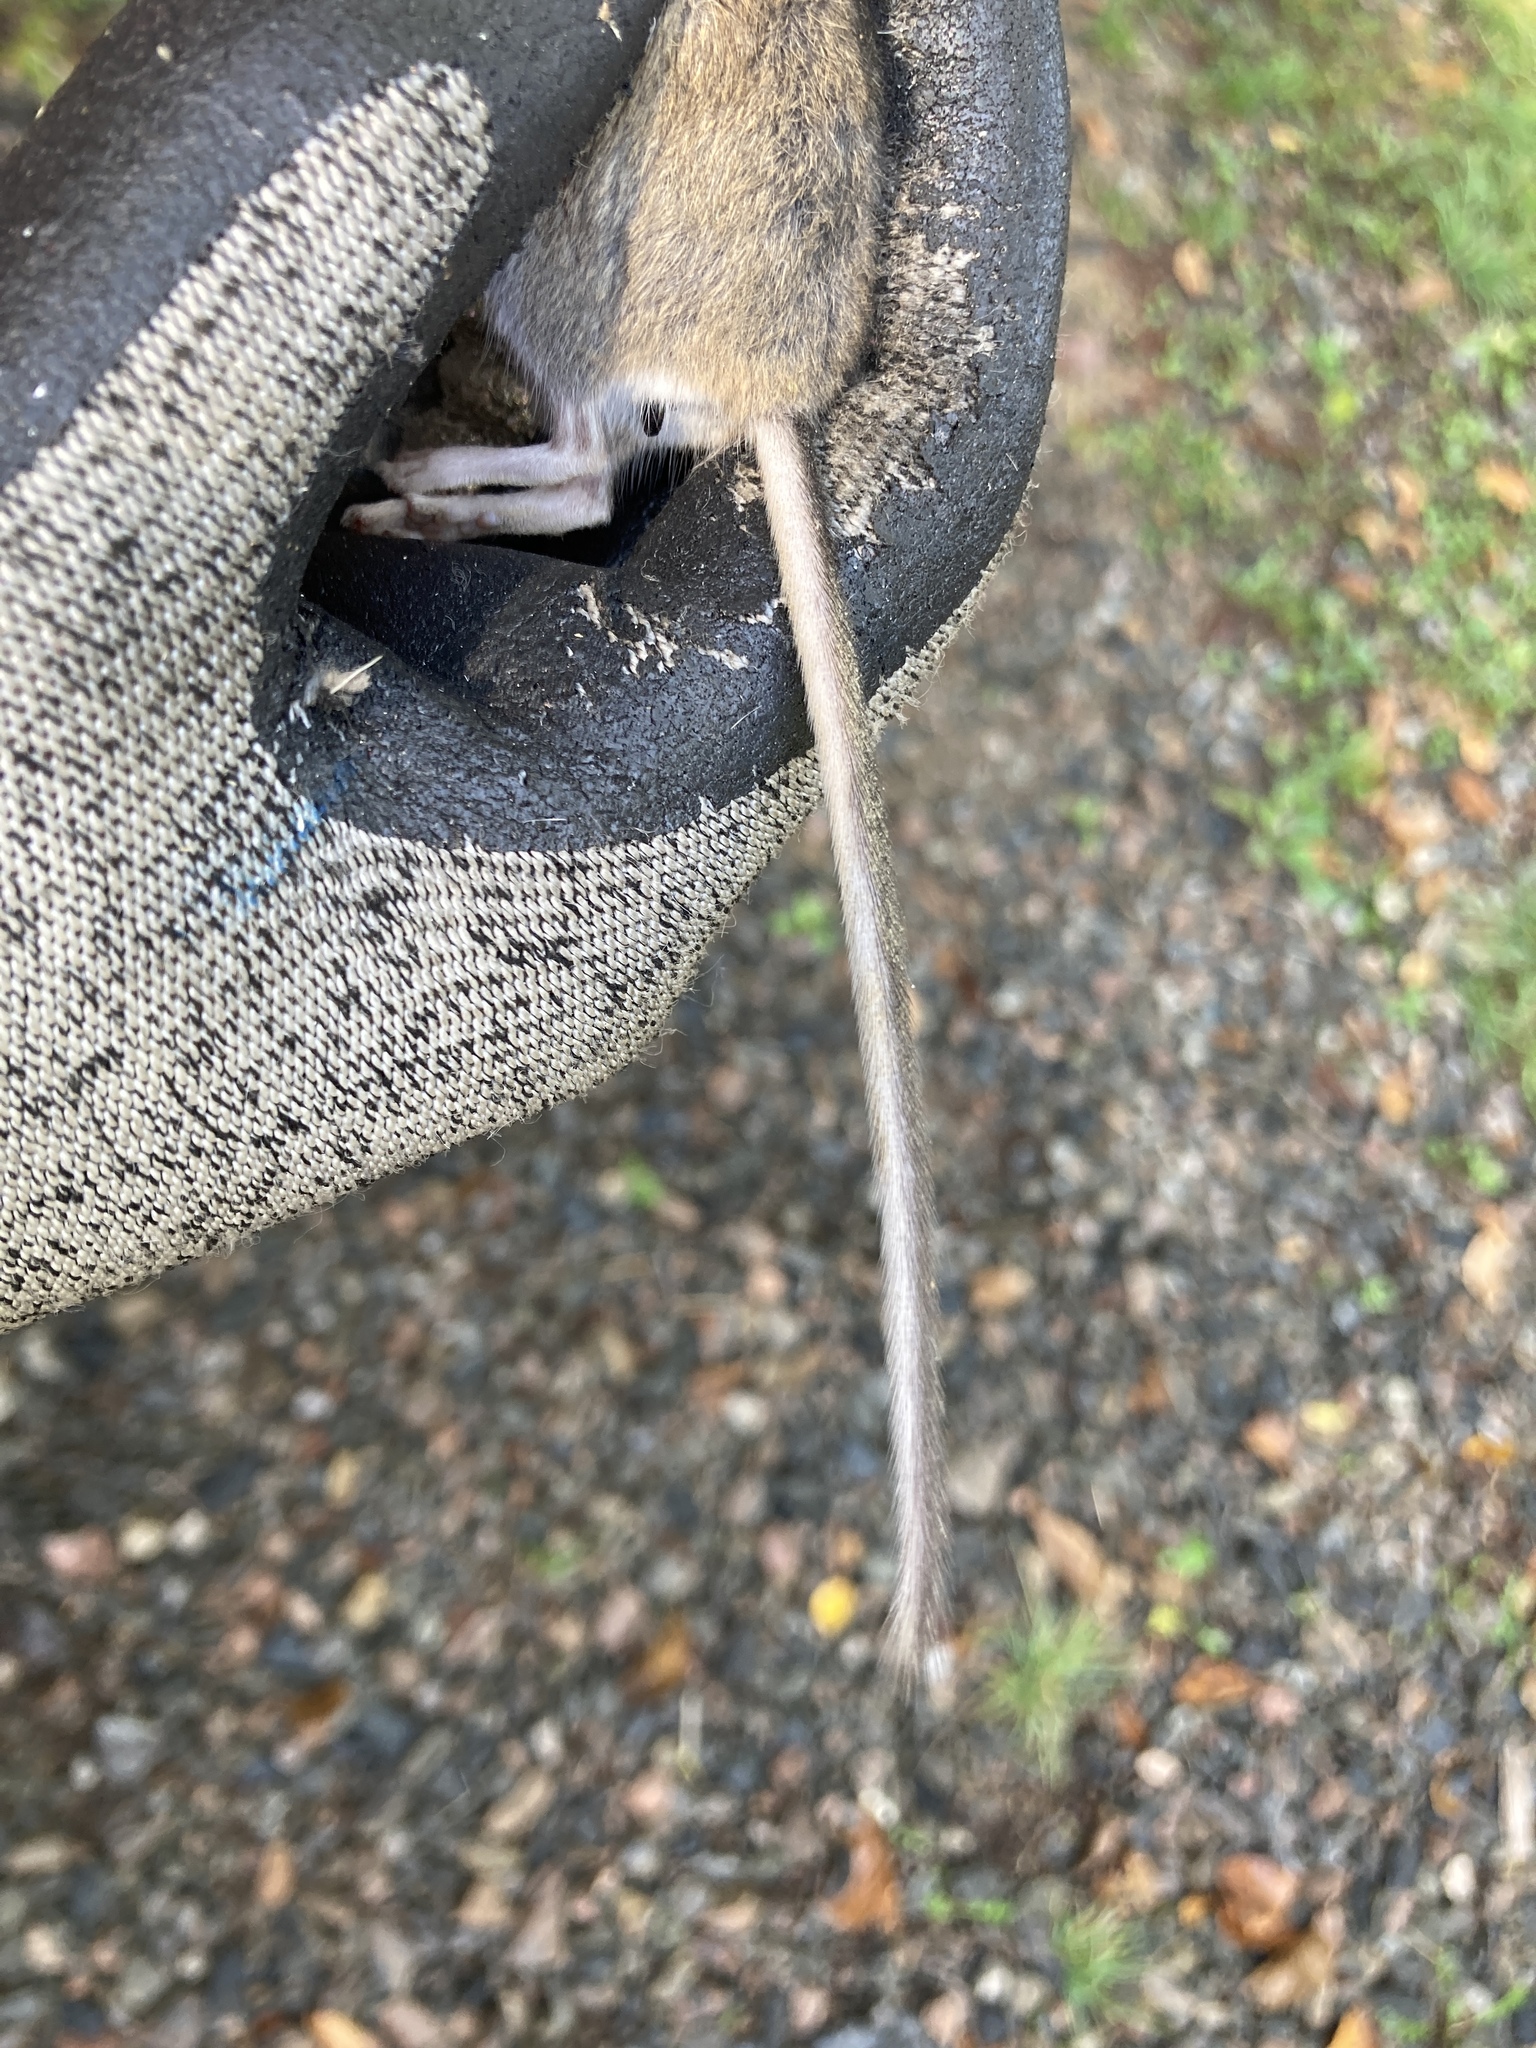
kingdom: Animalia
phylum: Chordata
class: Mammalia
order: Rodentia
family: Cricetidae
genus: Peromyscus
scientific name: Peromyscus maniculatus
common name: Deer mouse
